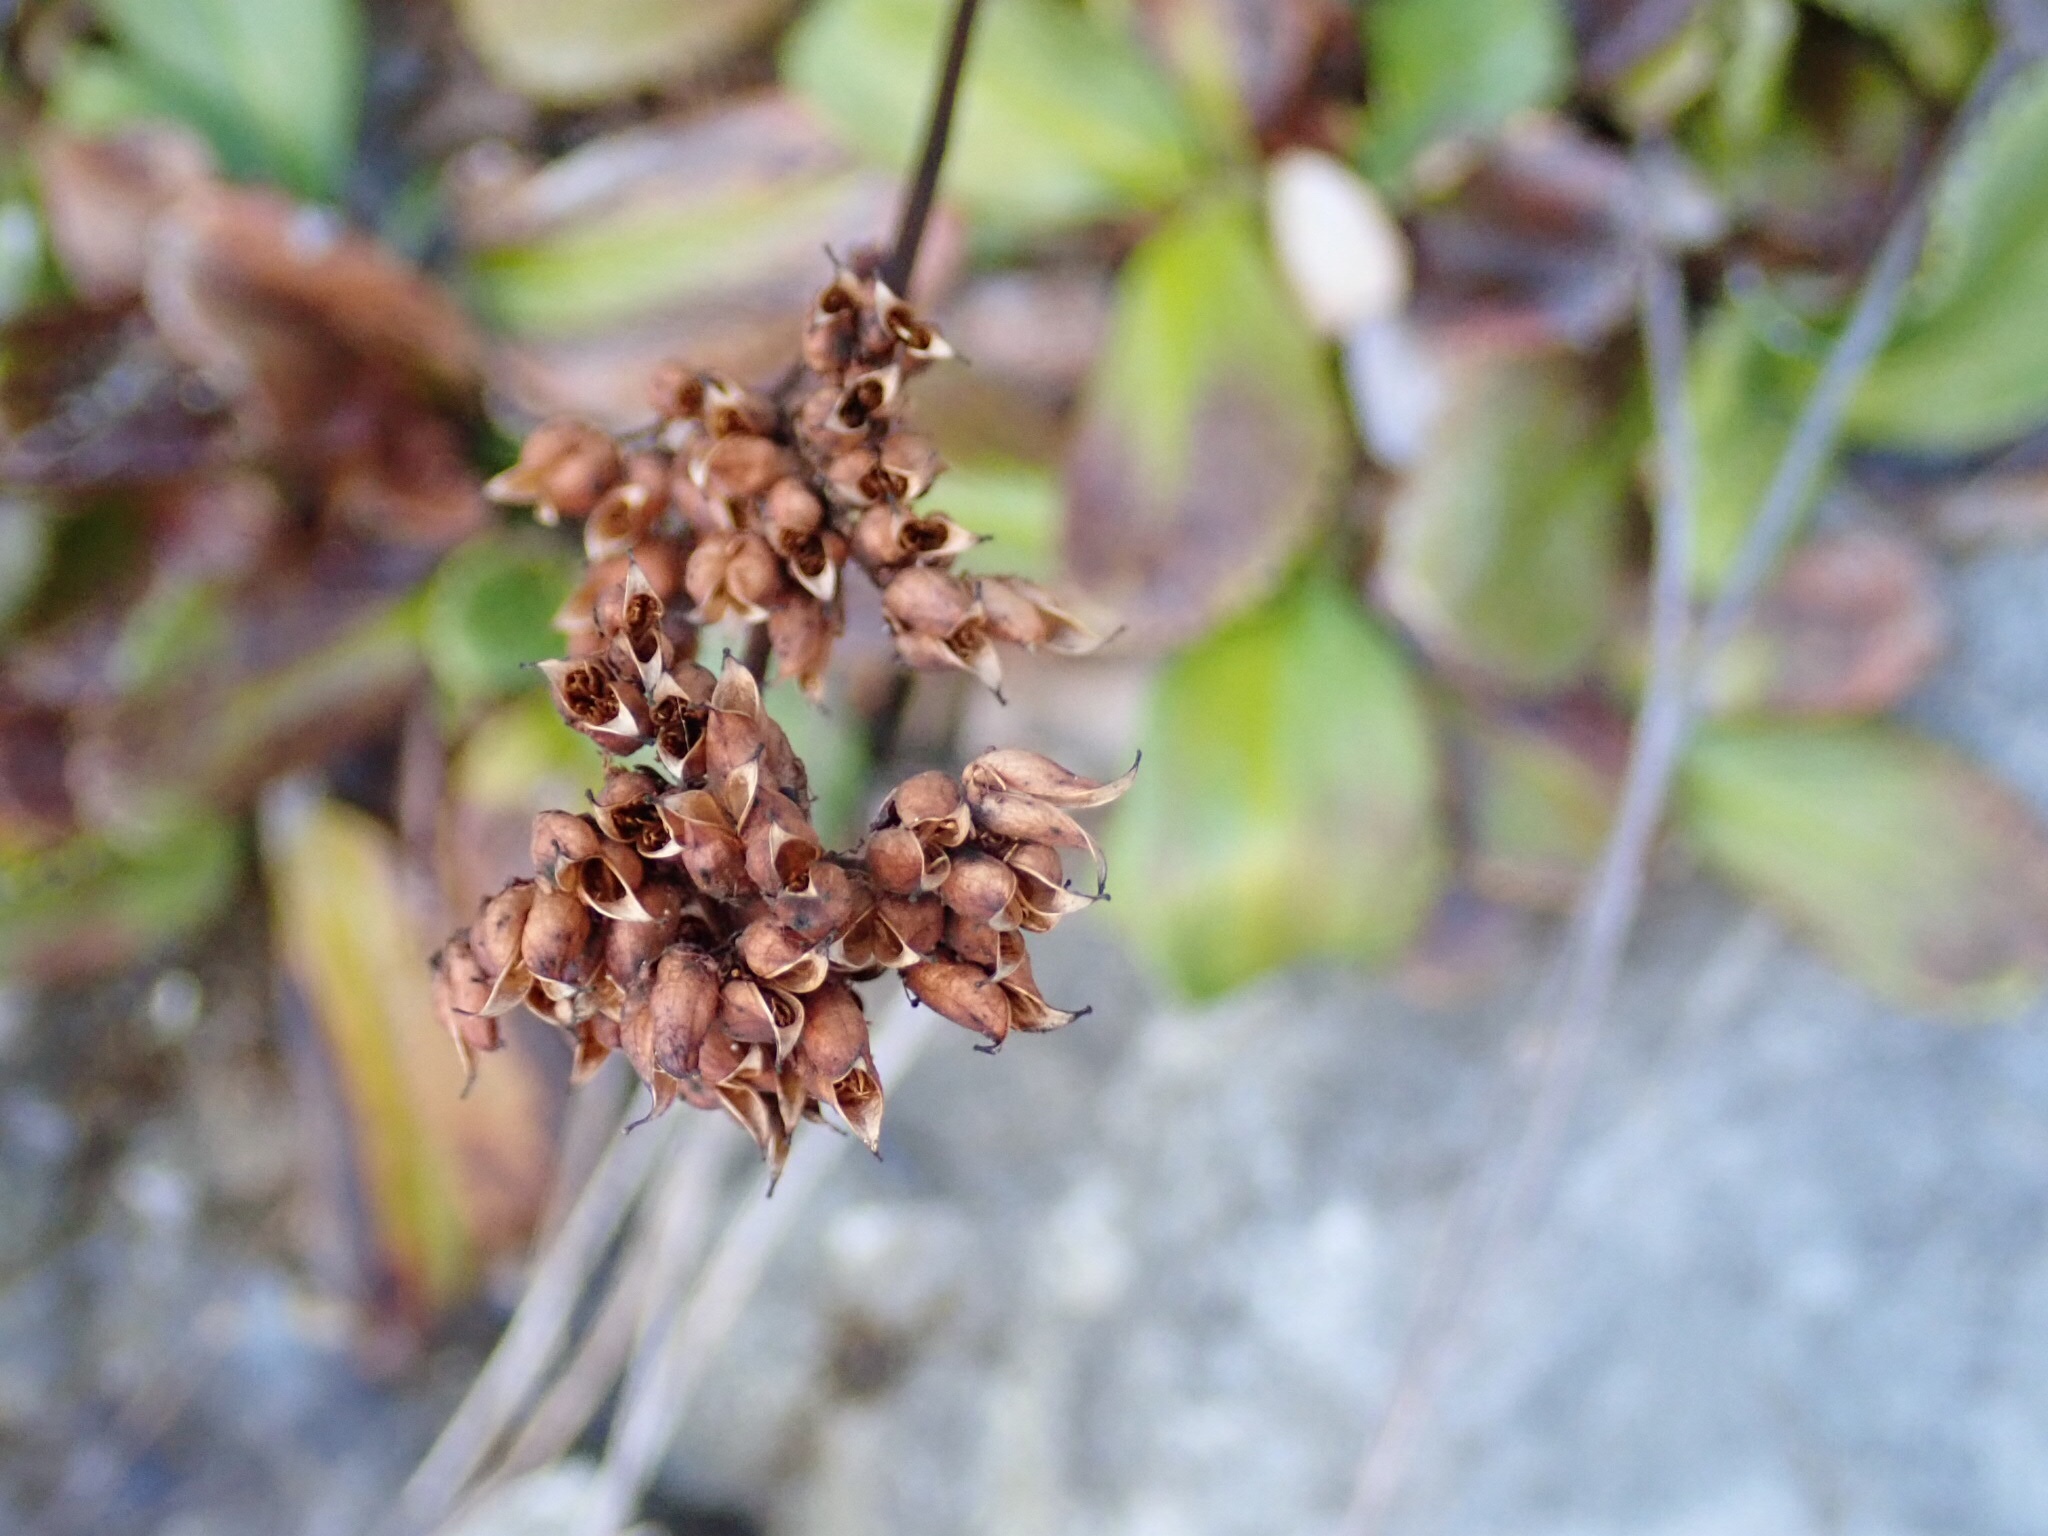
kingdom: Plantae
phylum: Tracheophyta
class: Magnoliopsida
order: Saxifragales
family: Saxifragaceae
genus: Leptarrhena
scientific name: Leptarrhena pyrolifolia
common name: Leatherleaf-saxifrage
